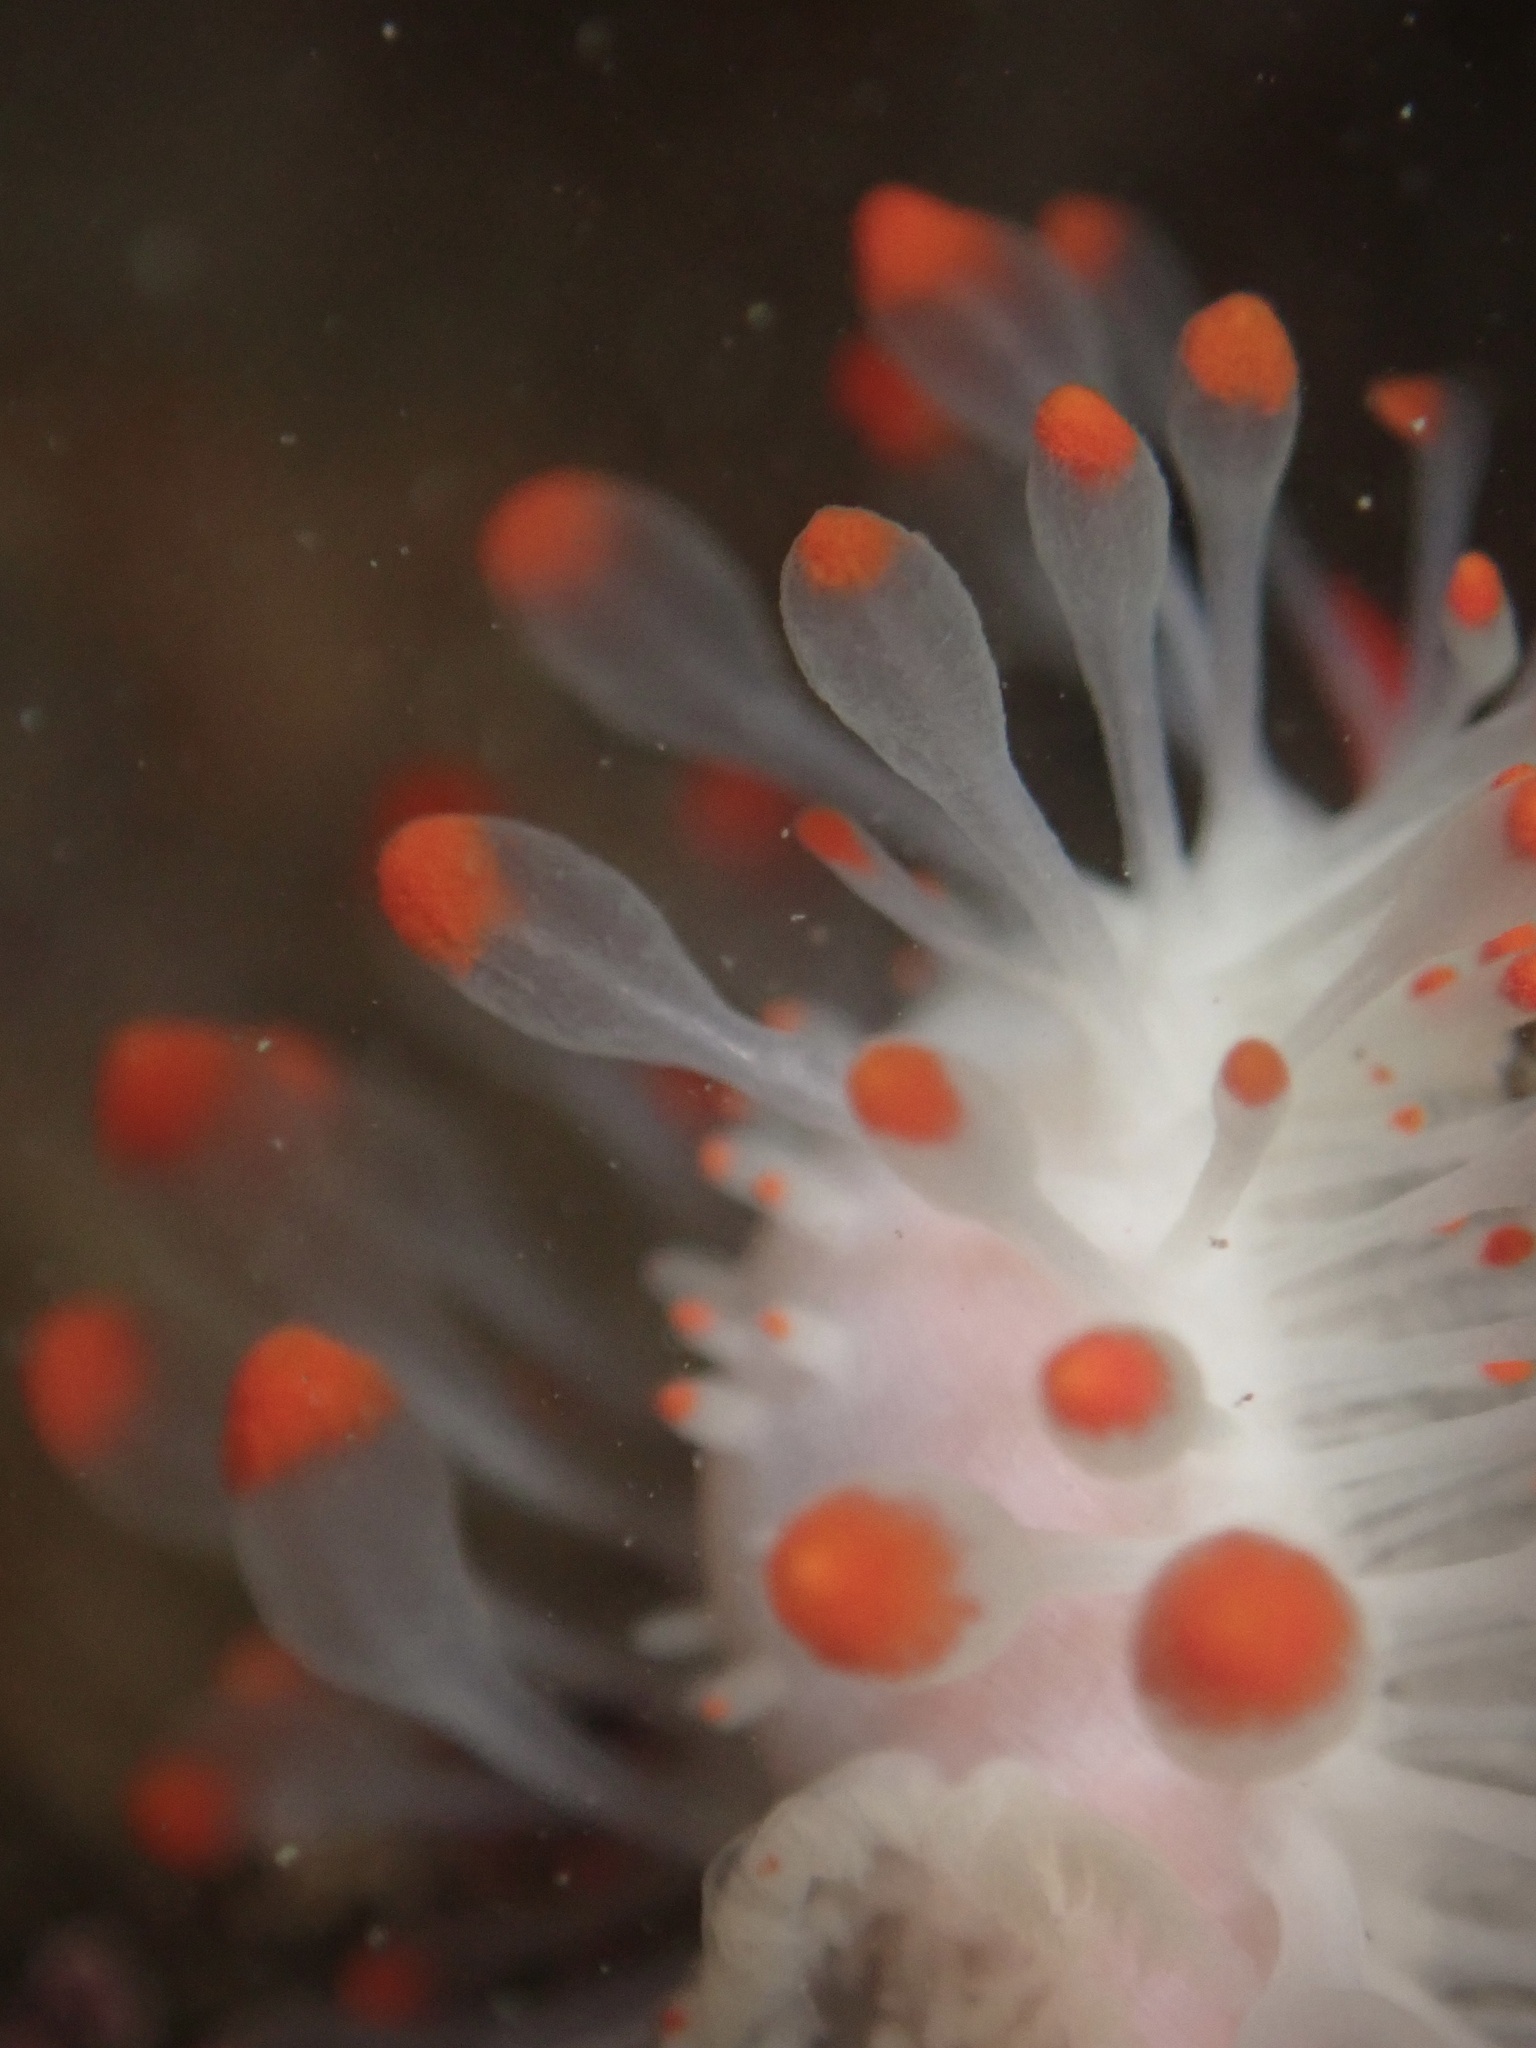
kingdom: Animalia
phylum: Mollusca
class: Gastropoda
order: Nudibranchia
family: Polyceridae
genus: Limacia
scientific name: Limacia cockerelli
